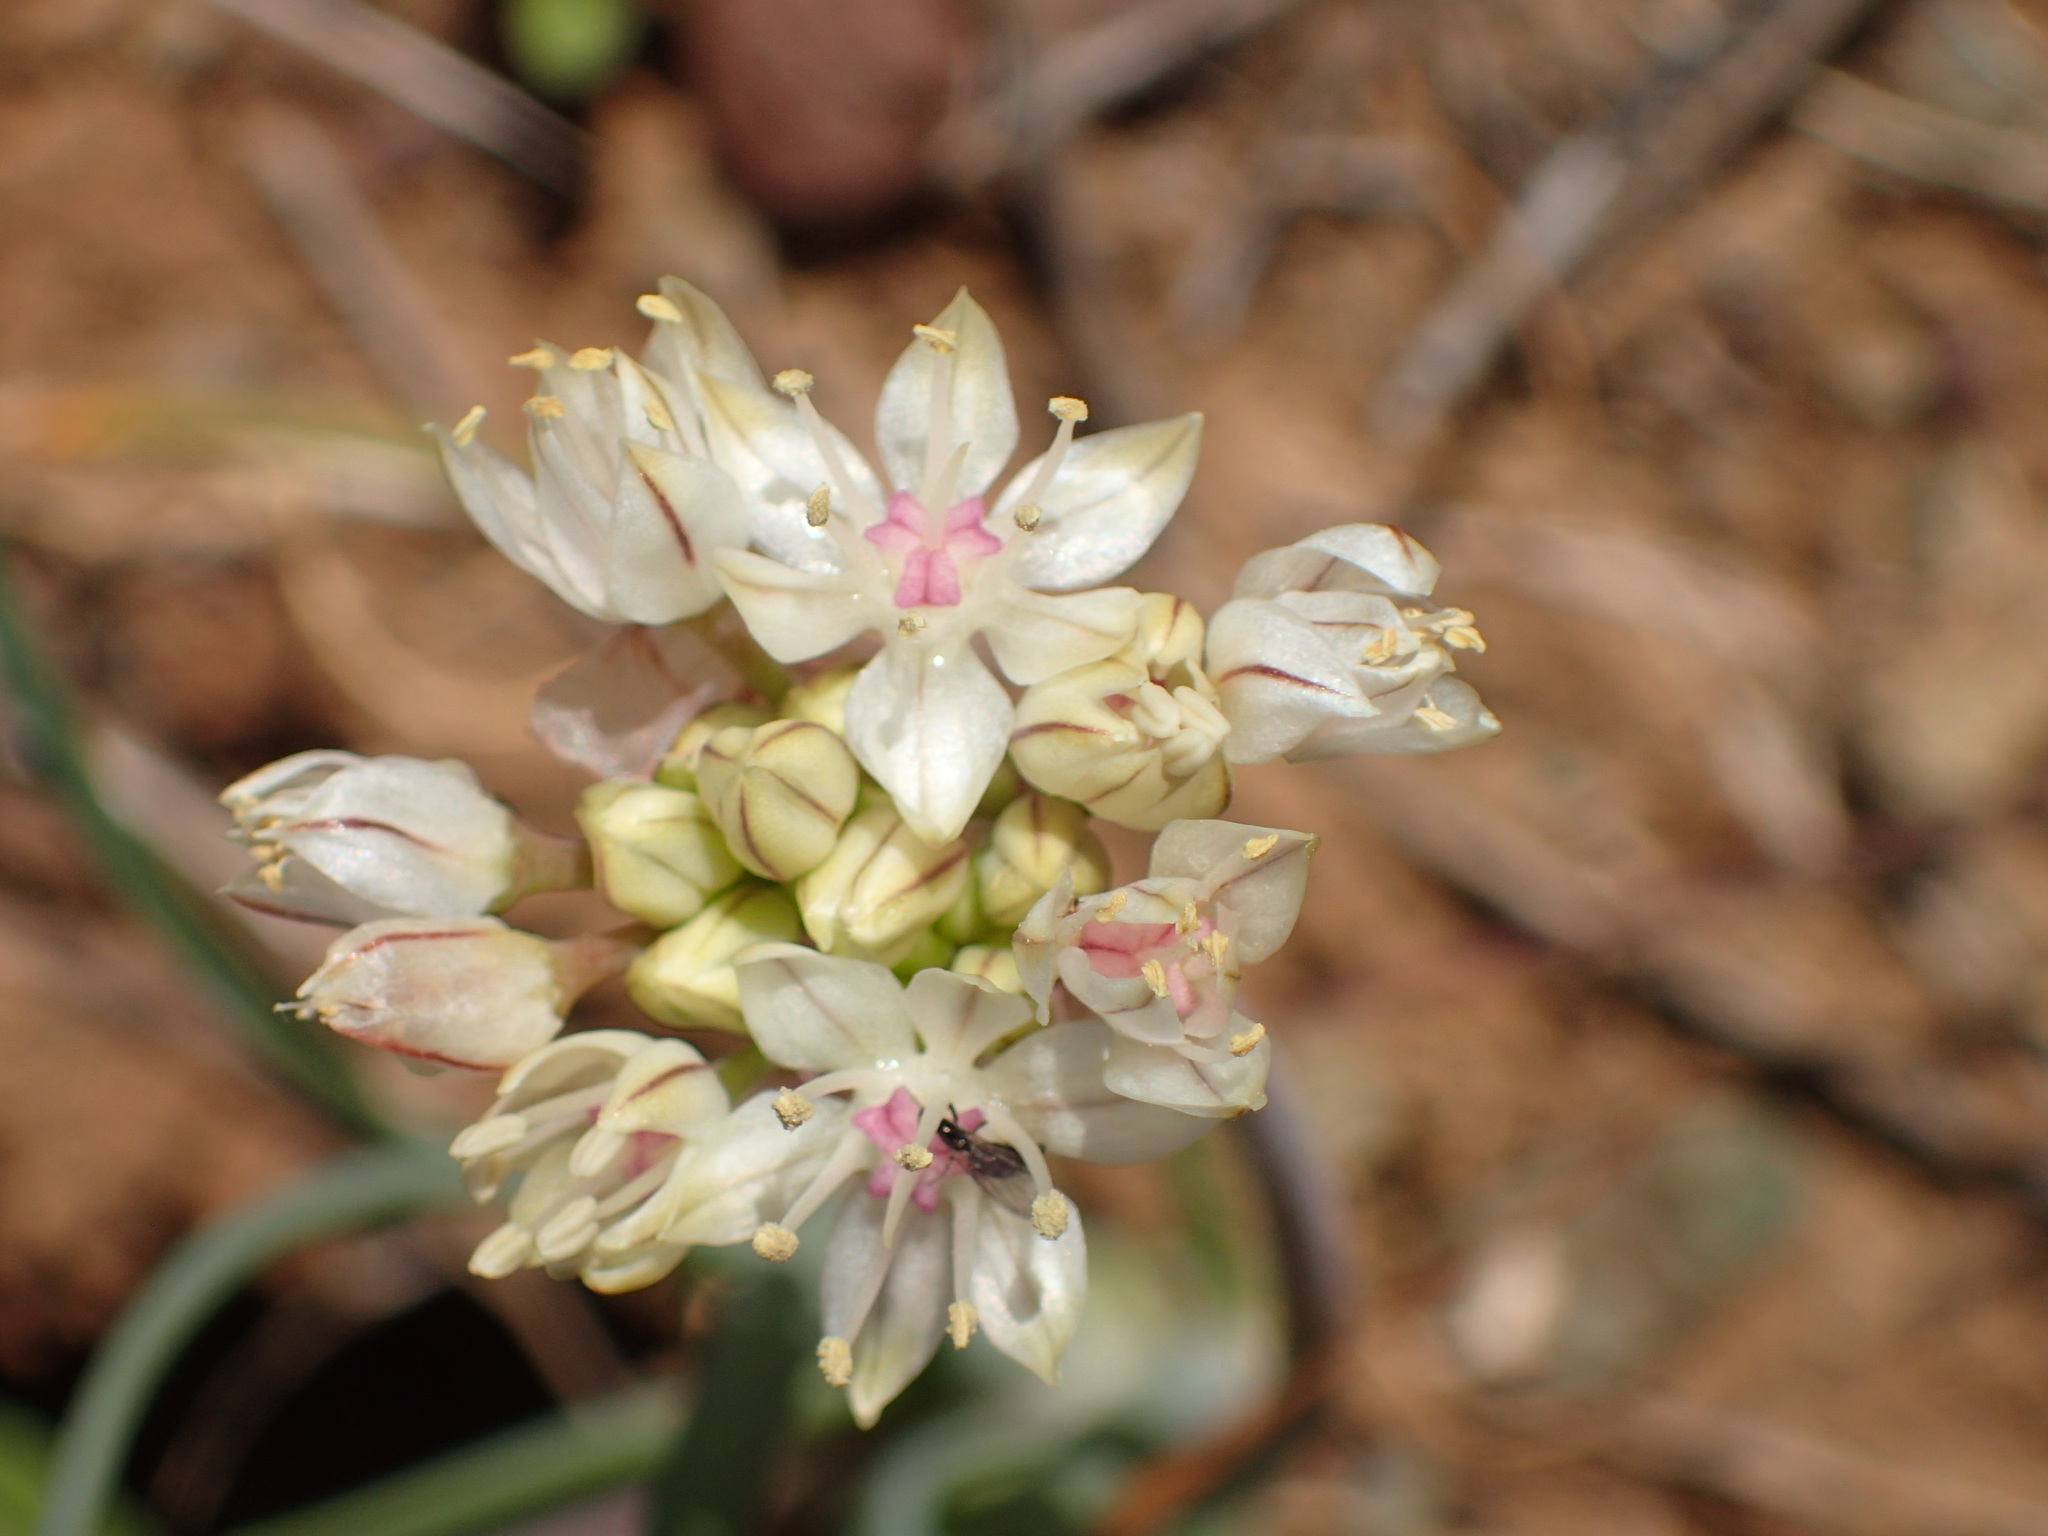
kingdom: Plantae
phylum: Tracheophyta
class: Liliopsida
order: Asparagales
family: Amaryllidaceae
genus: Allium
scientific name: Allium haematochiton
